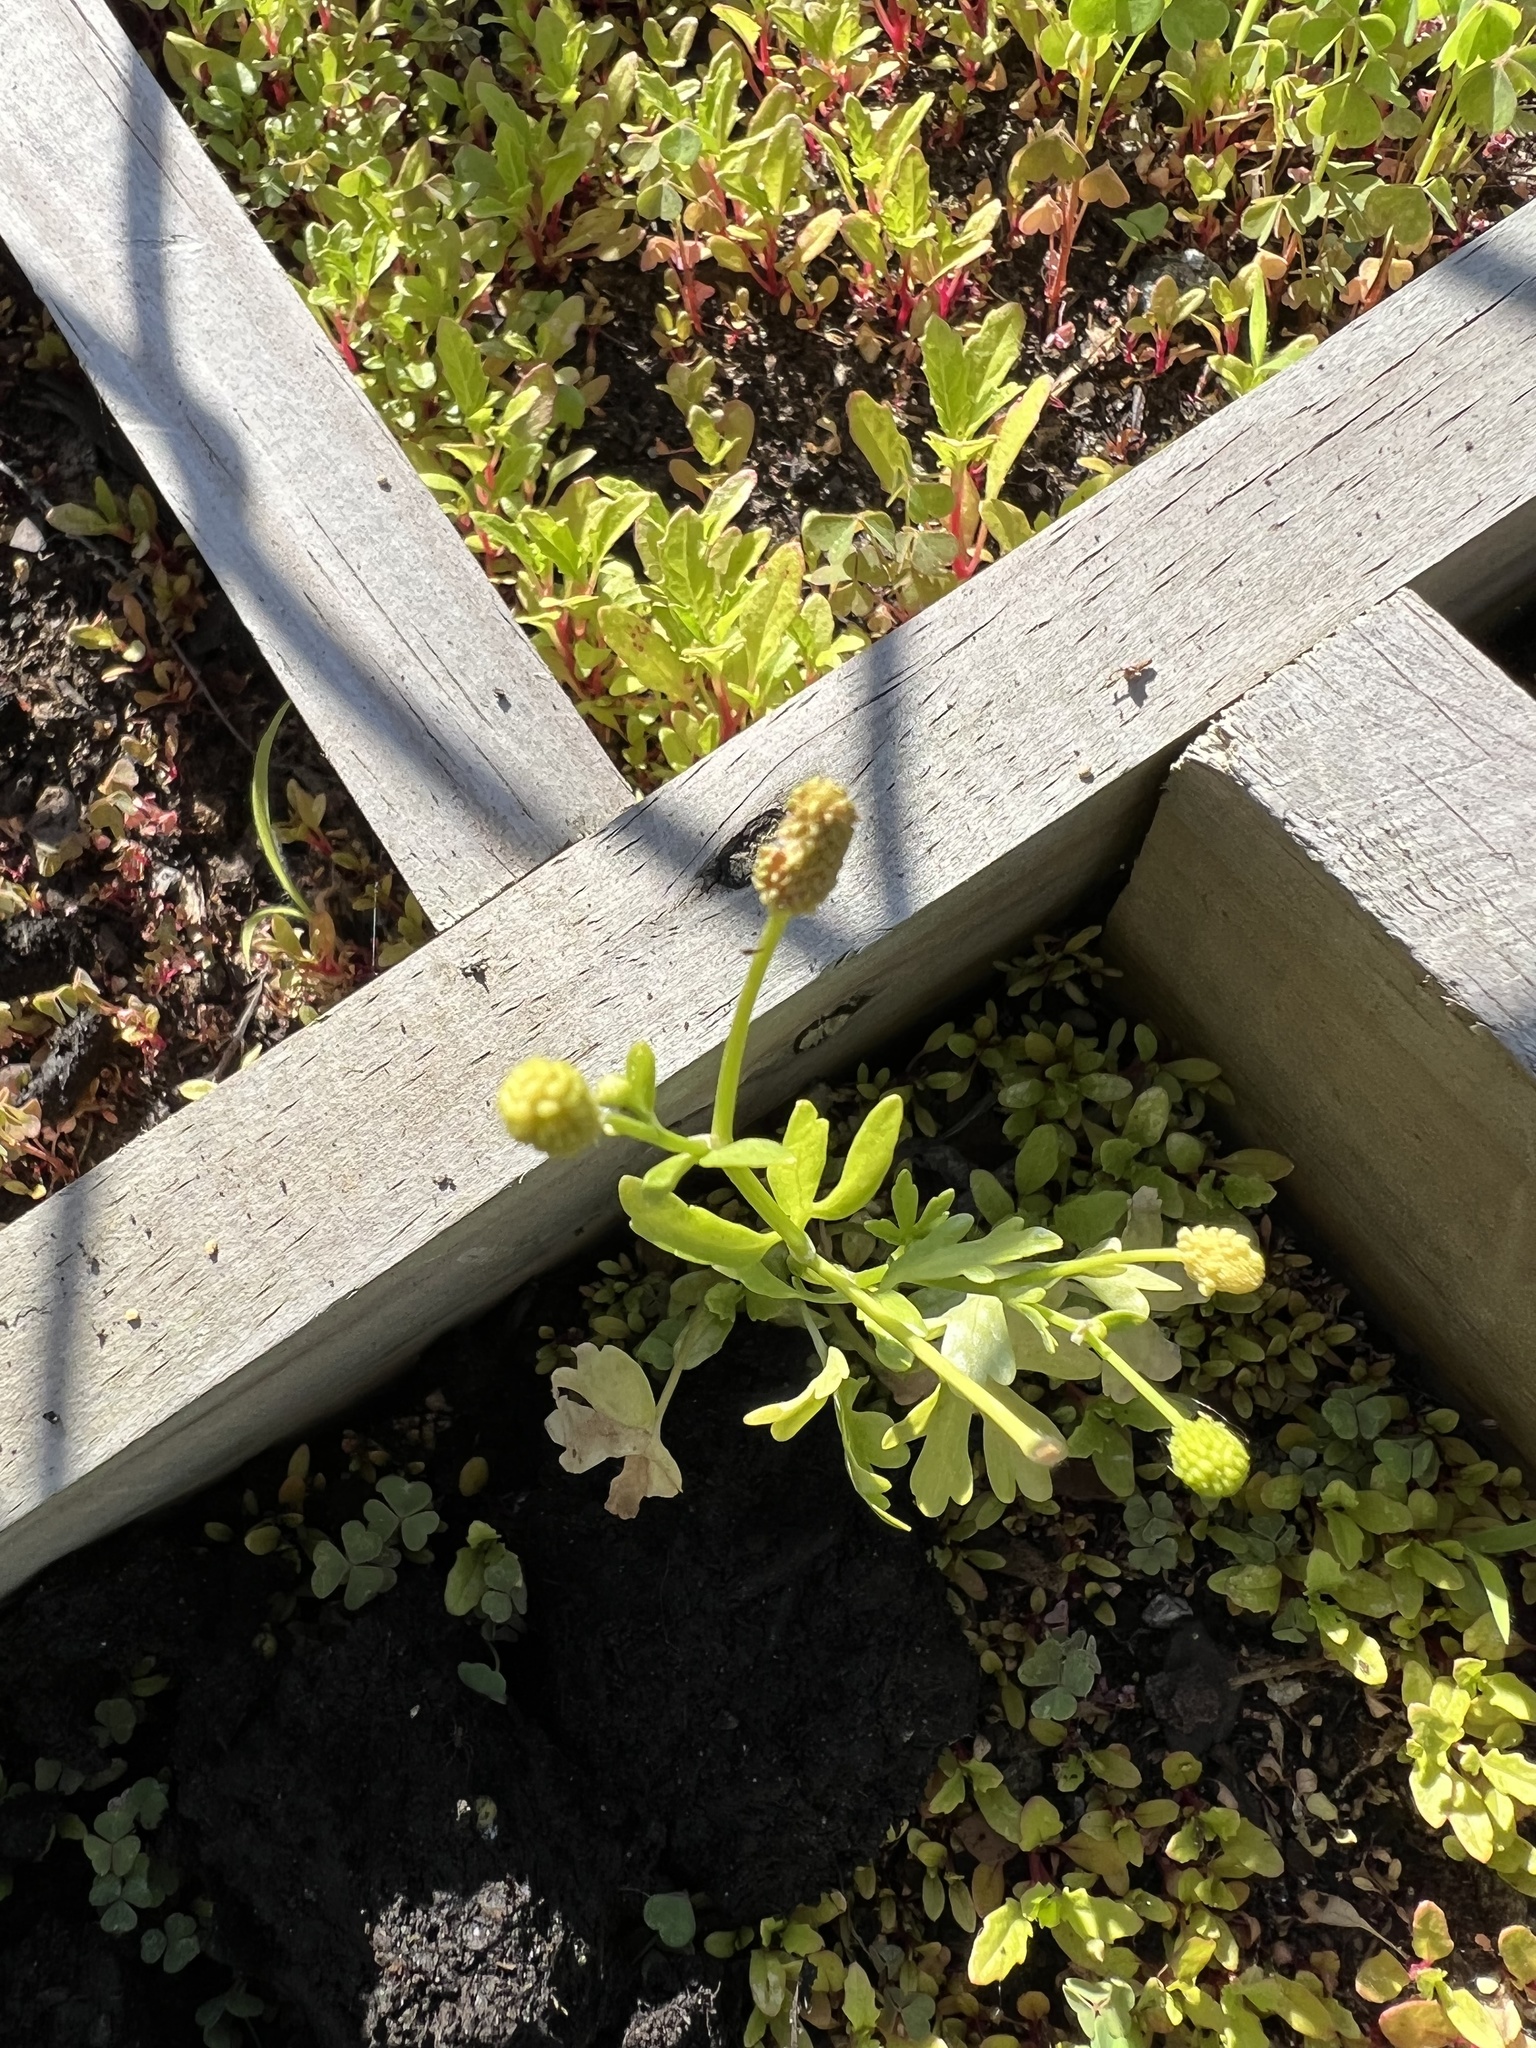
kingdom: Plantae
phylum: Tracheophyta
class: Magnoliopsida
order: Ranunculales
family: Ranunculaceae
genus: Ranunculus
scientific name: Ranunculus sceleratus
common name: Celery-leaved buttercup
